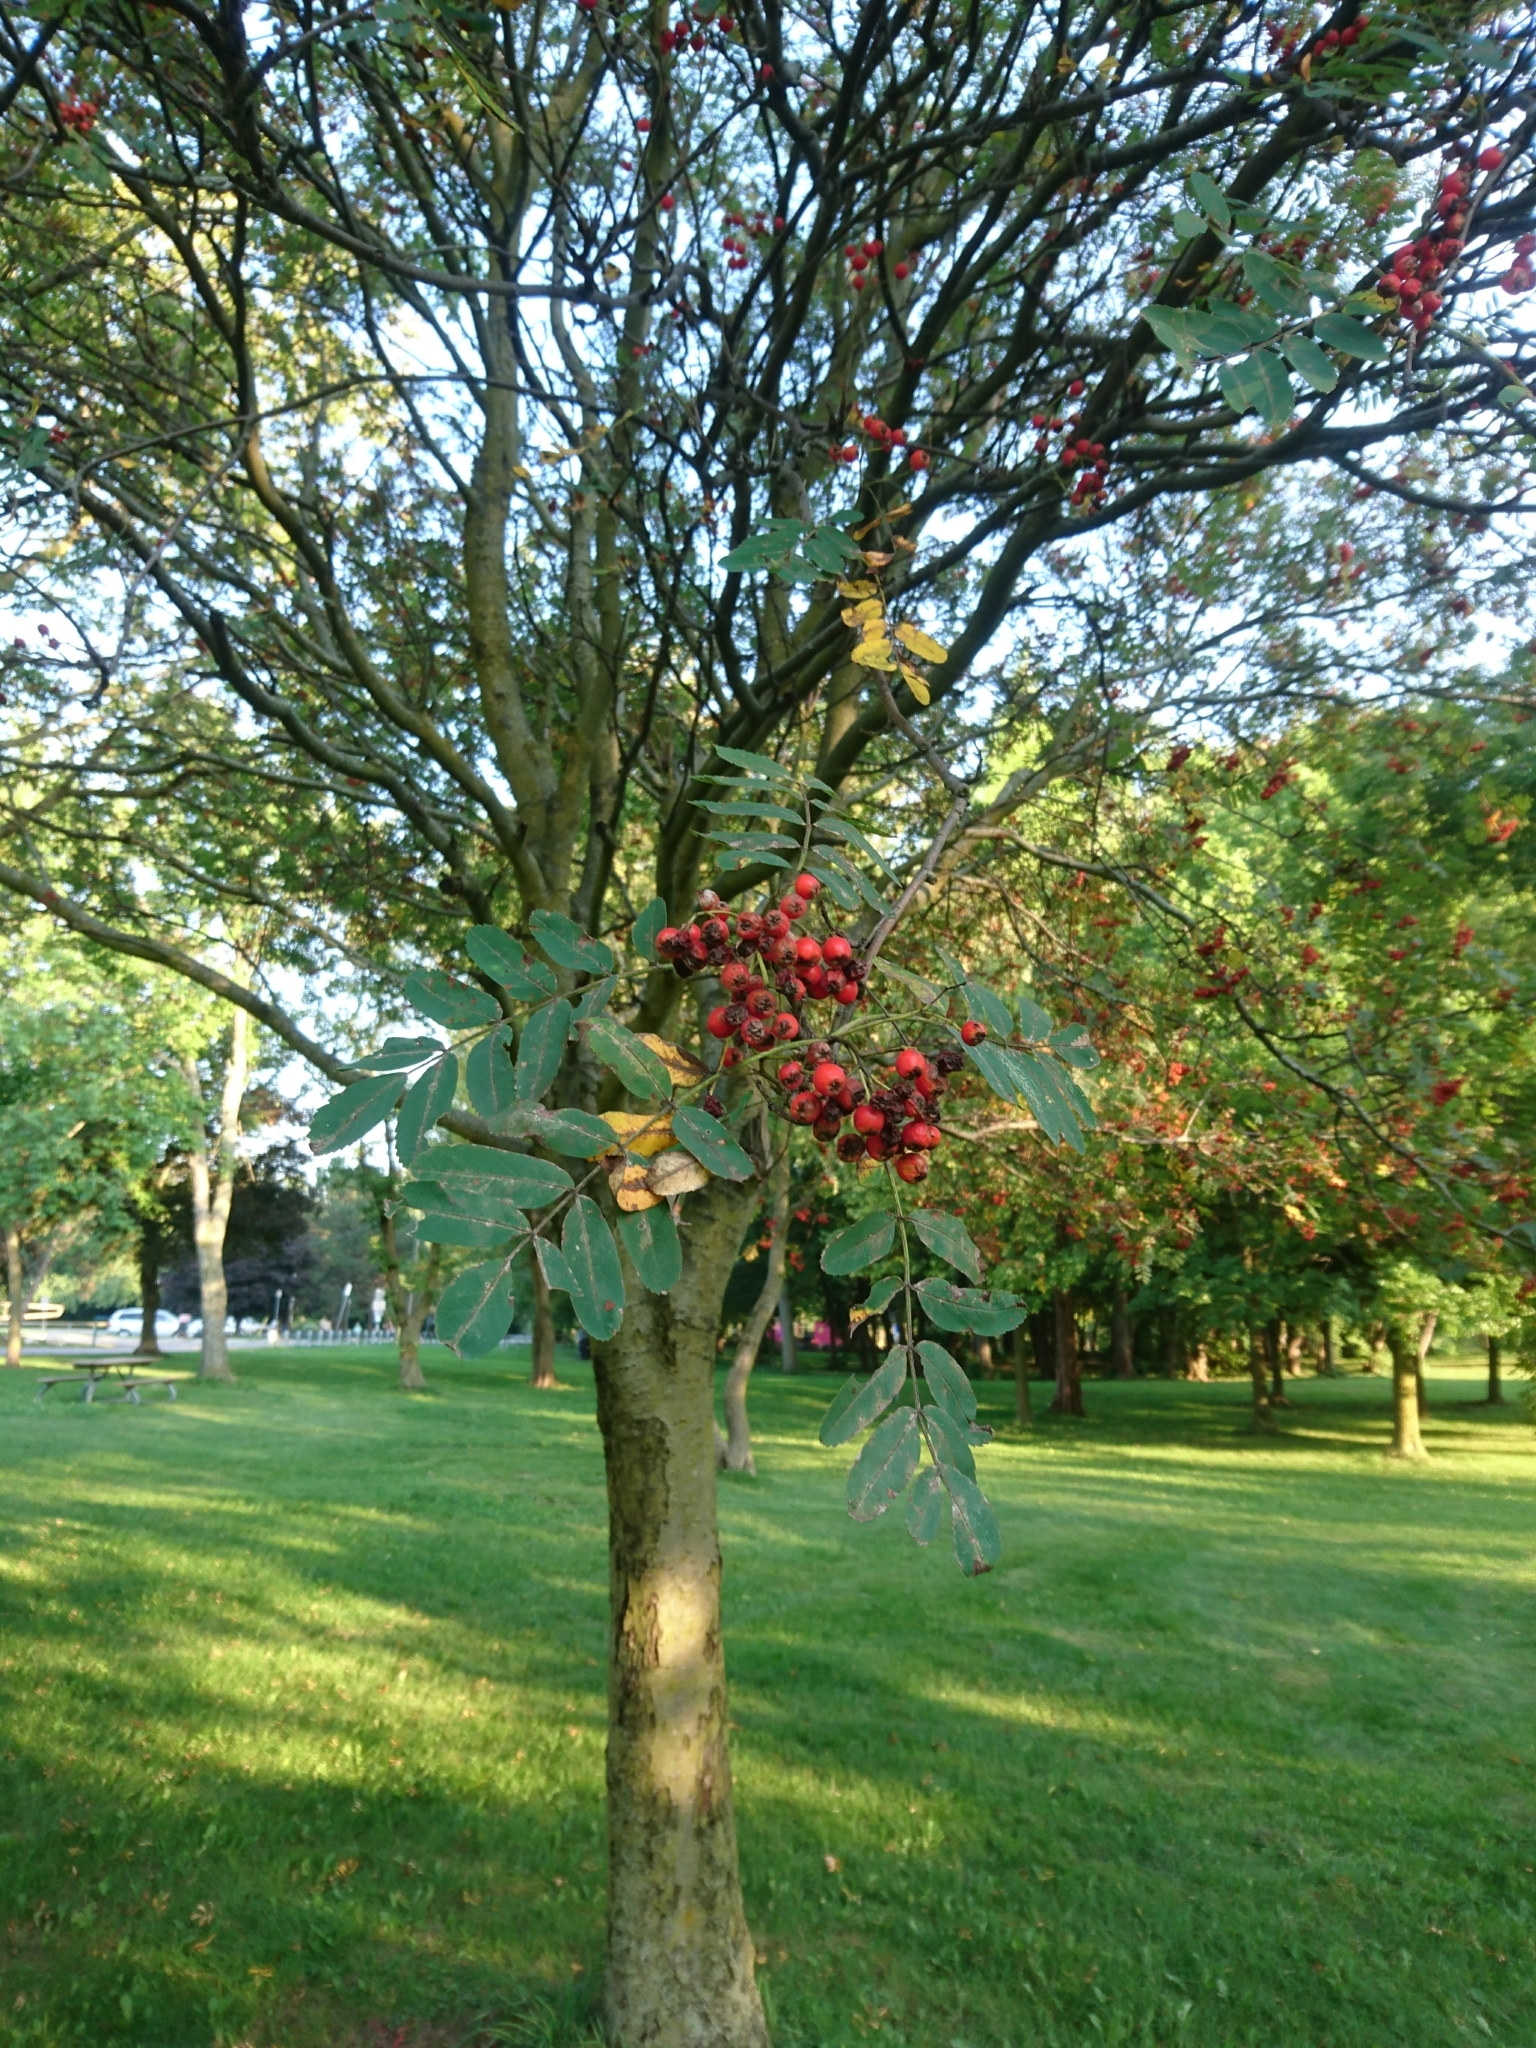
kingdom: Plantae
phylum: Tracheophyta
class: Magnoliopsida
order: Rosales
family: Rosaceae
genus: Sorbus
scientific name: Sorbus aucuparia
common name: Rowan
